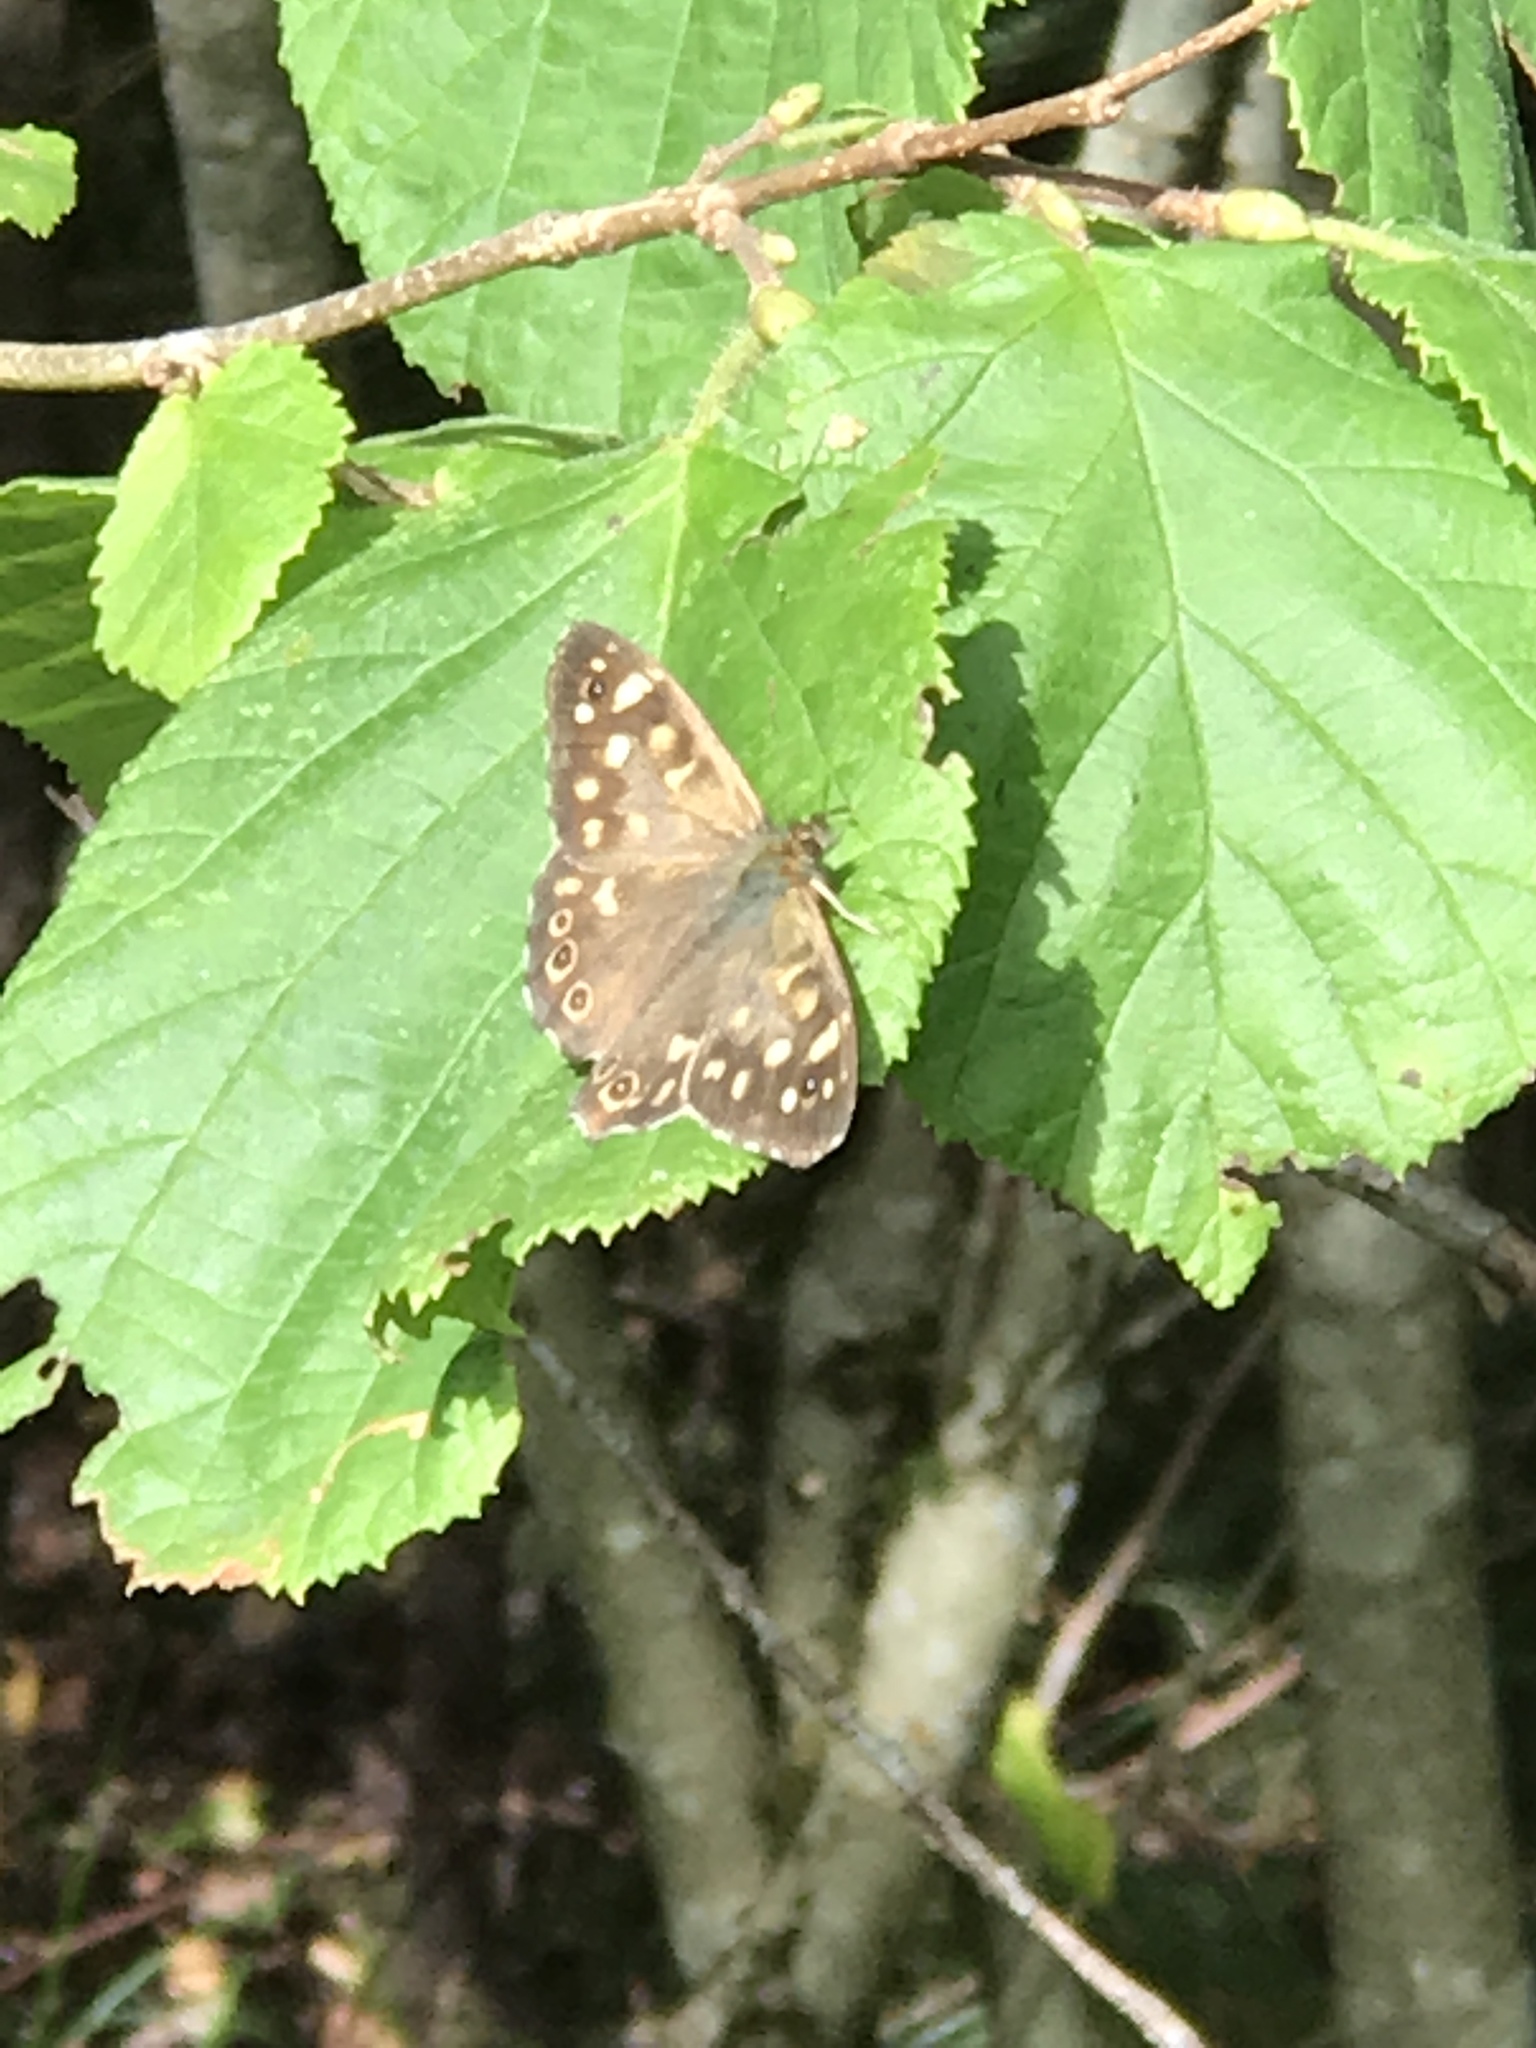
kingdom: Animalia
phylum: Arthropoda
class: Insecta
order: Lepidoptera
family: Nymphalidae
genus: Pararge
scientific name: Pararge aegeria
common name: Speckled wood
